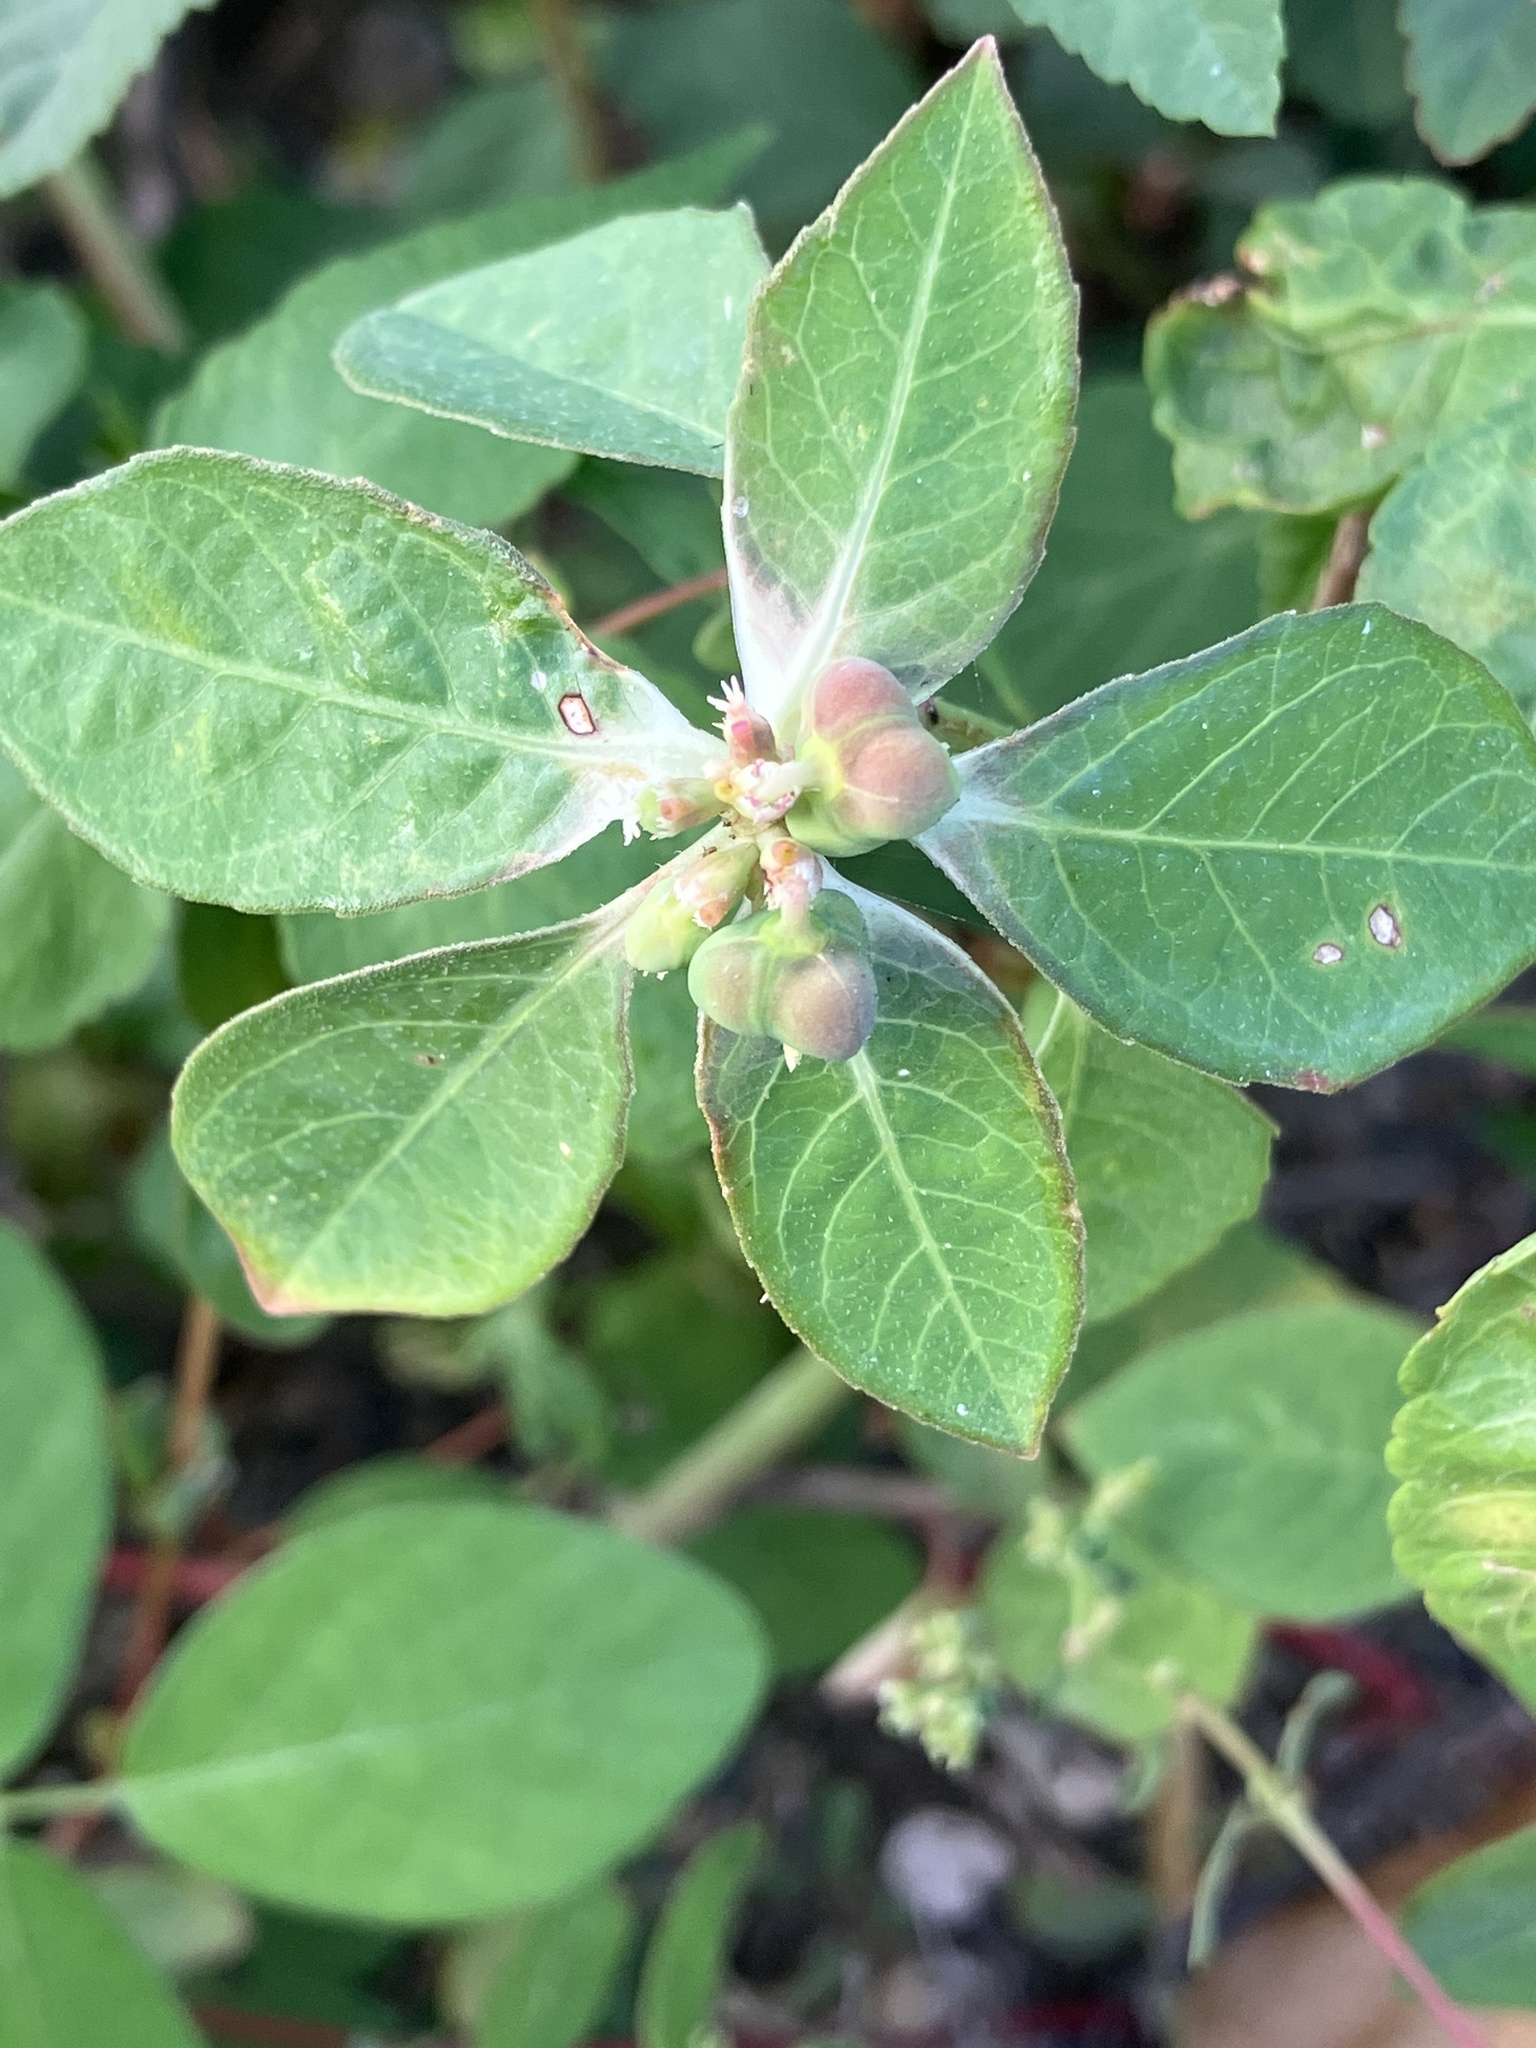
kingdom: Plantae
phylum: Tracheophyta
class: Magnoliopsida
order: Malpighiales
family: Euphorbiaceae
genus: Euphorbia
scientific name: Euphorbia heterophylla
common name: Mexican fireplant
